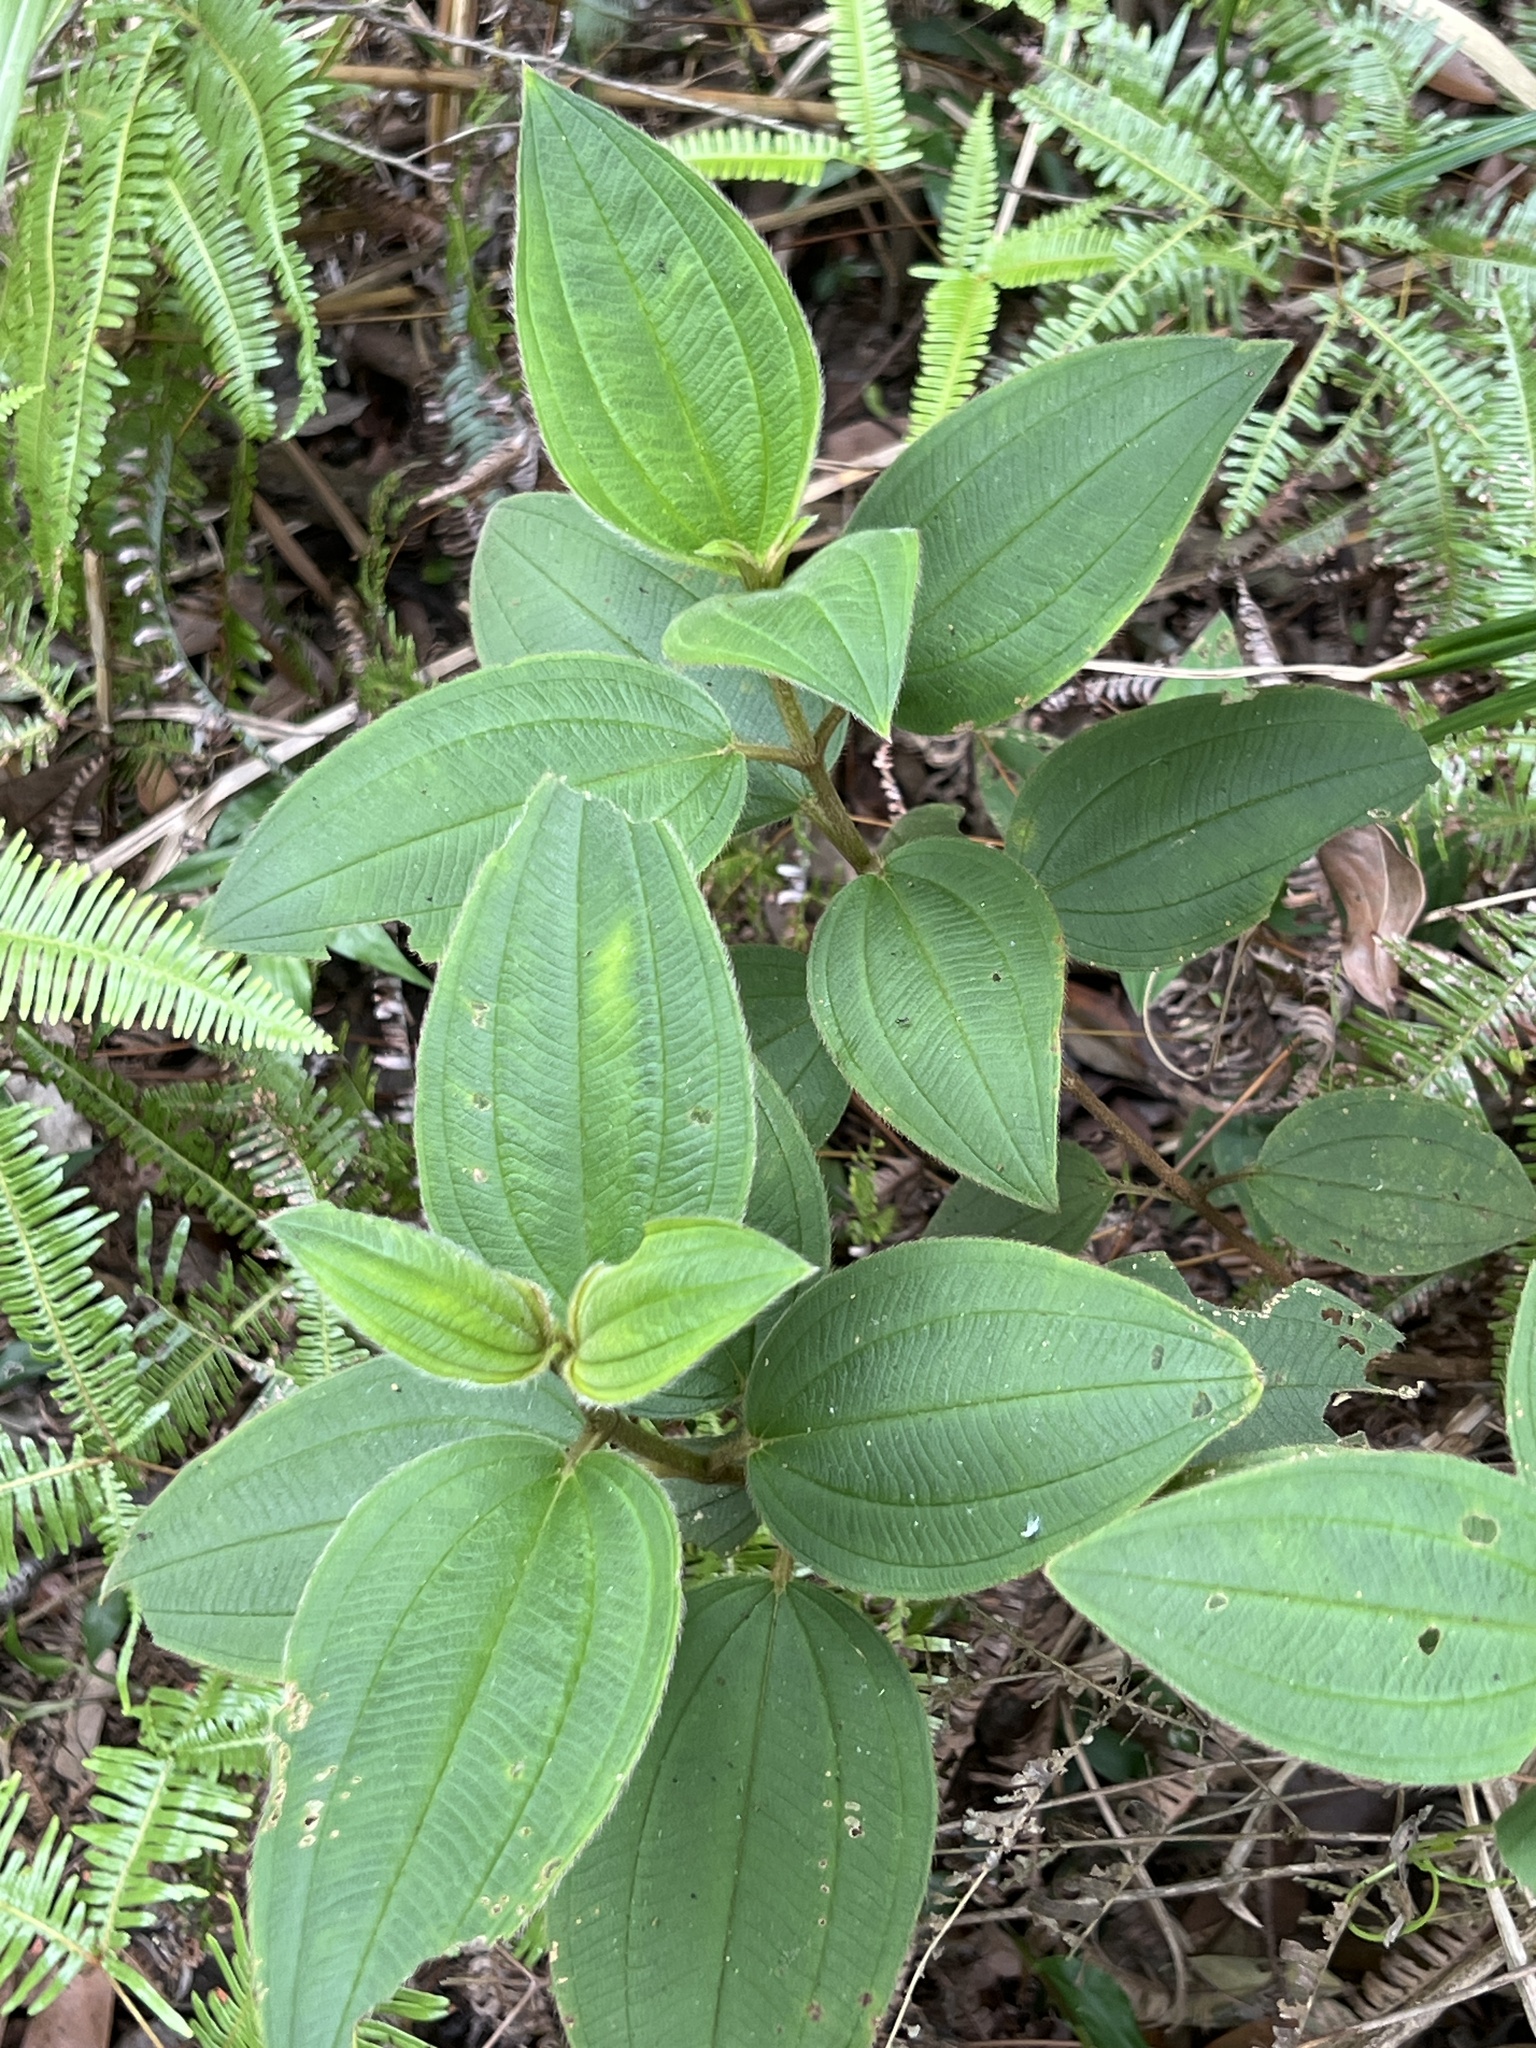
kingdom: Plantae
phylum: Tracheophyta
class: Magnoliopsida
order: Myrtales
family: Melastomataceae
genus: Melastoma
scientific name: Melastoma malabathricum
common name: Indian-rhododendron
